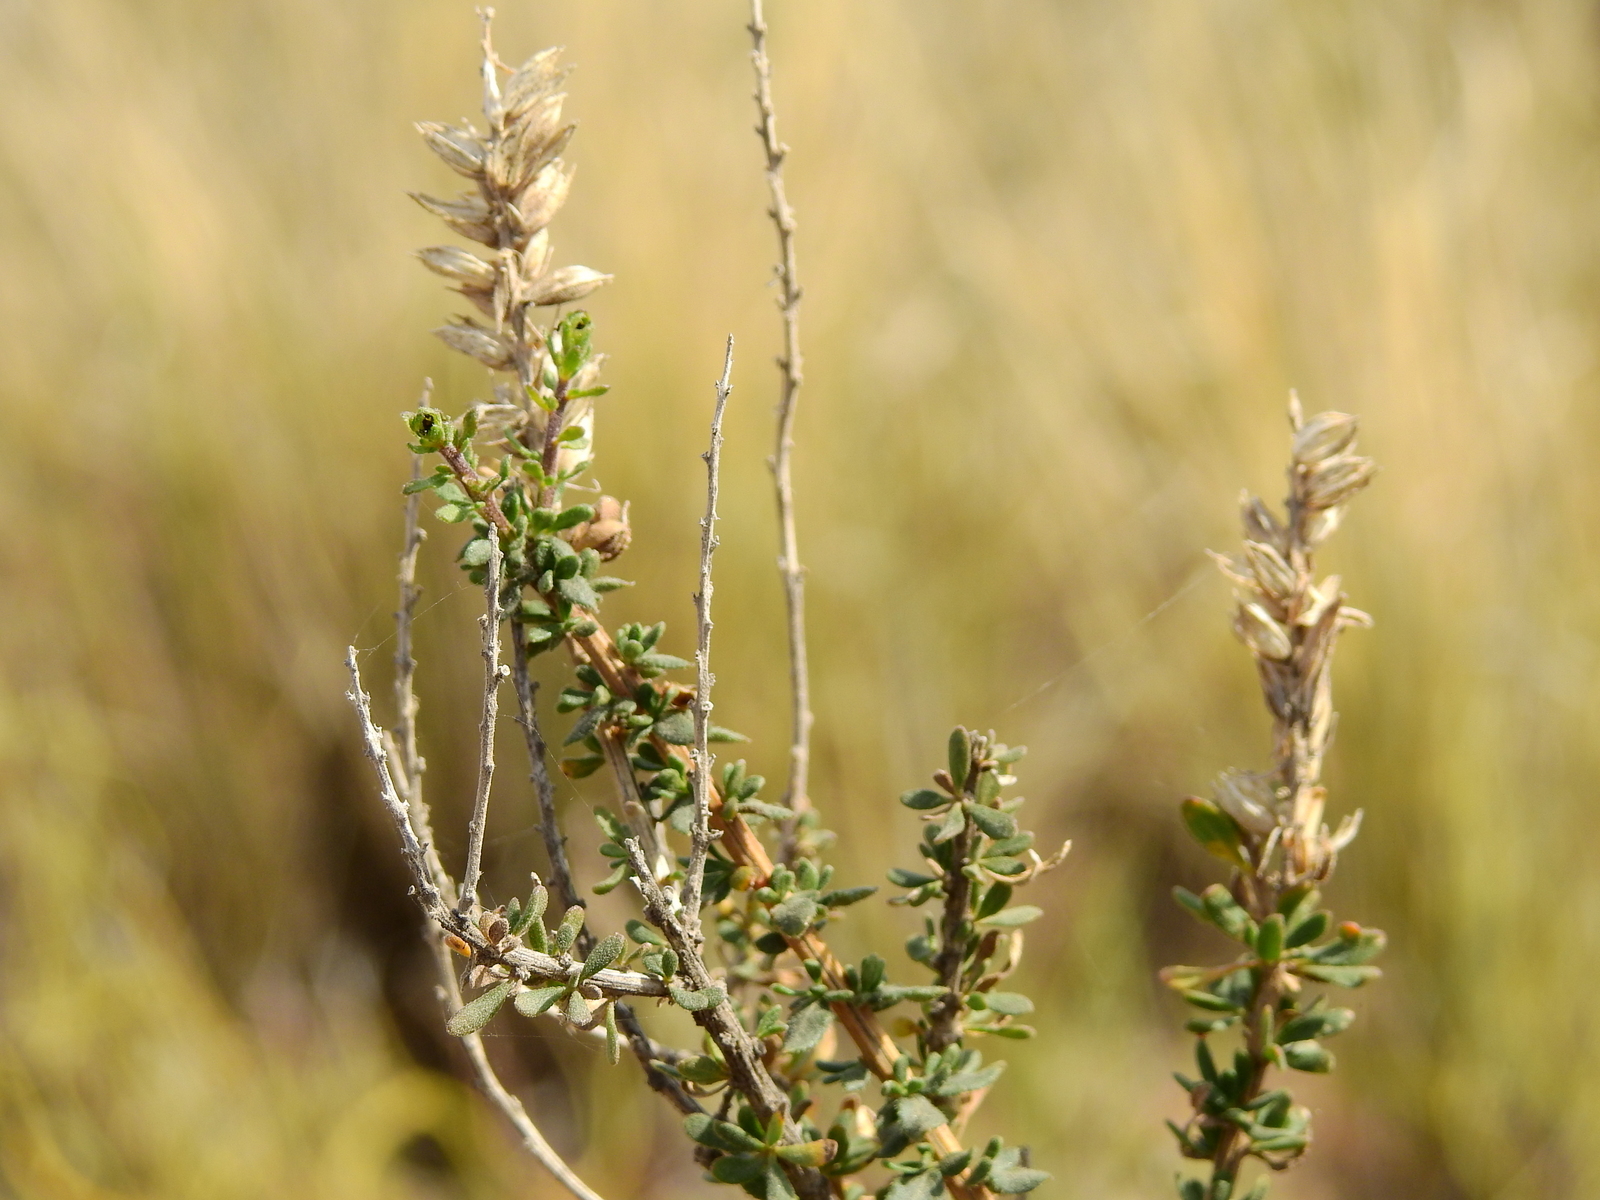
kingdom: Plantae
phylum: Tracheophyta
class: Magnoliopsida
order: Lamiales
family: Verbenaceae
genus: Mulguraea
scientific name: Mulguraea aspera
